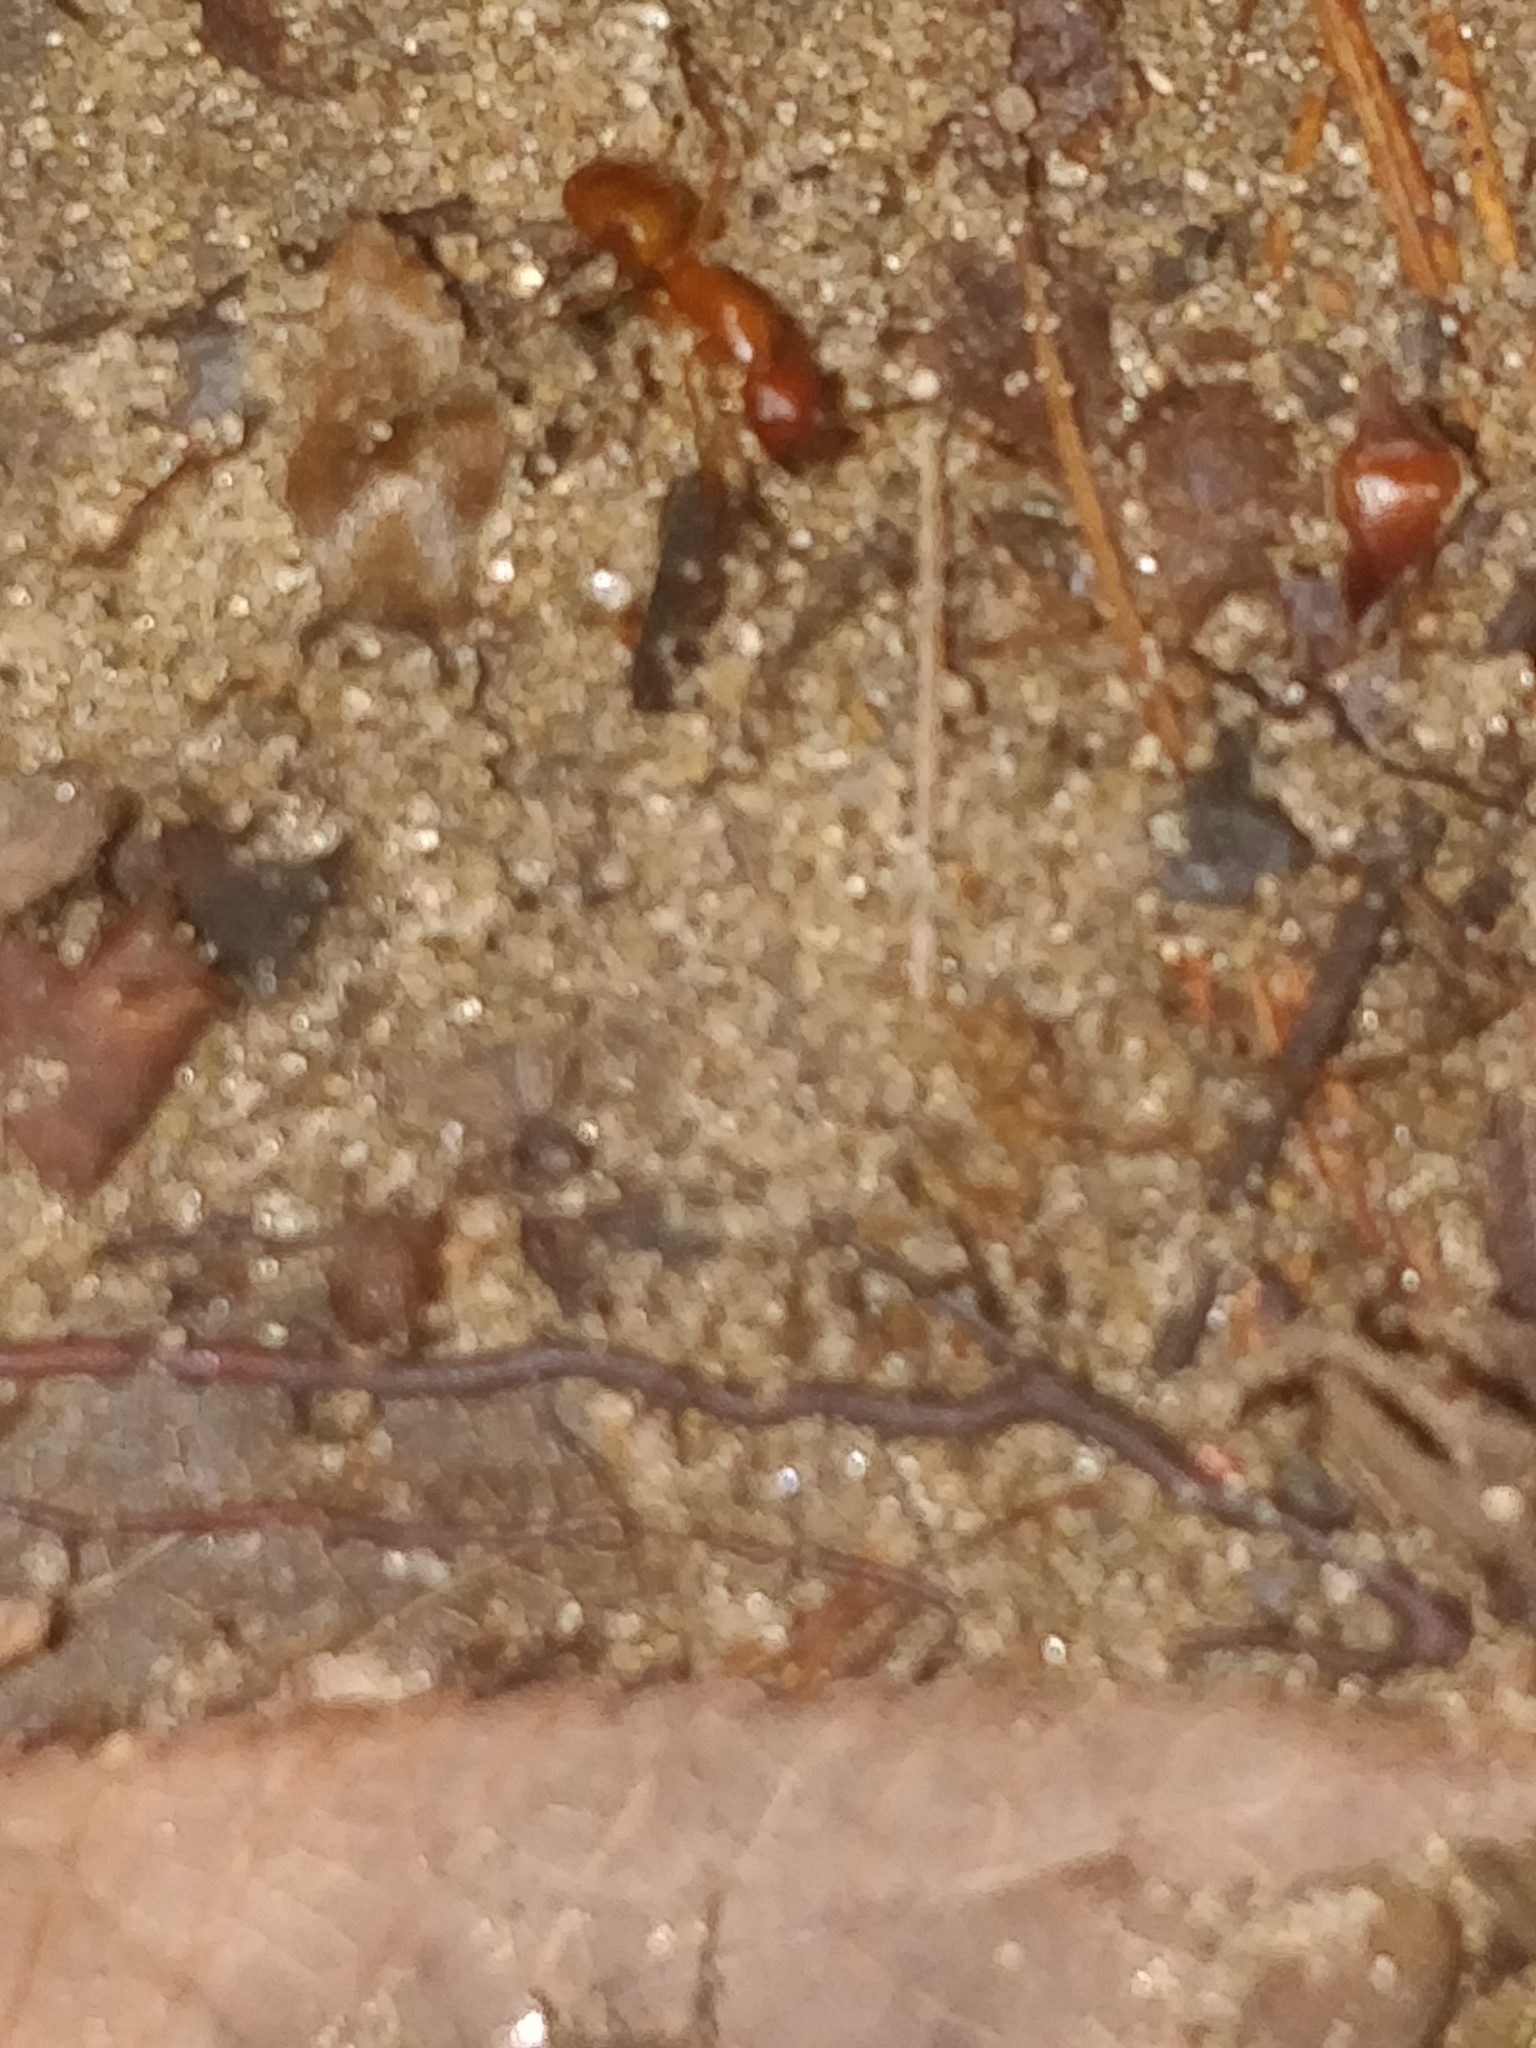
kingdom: Animalia
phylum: Arthropoda
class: Insecta
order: Hymenoptera
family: Formicidae
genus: Camponotus
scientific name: Camponotus castaneus
